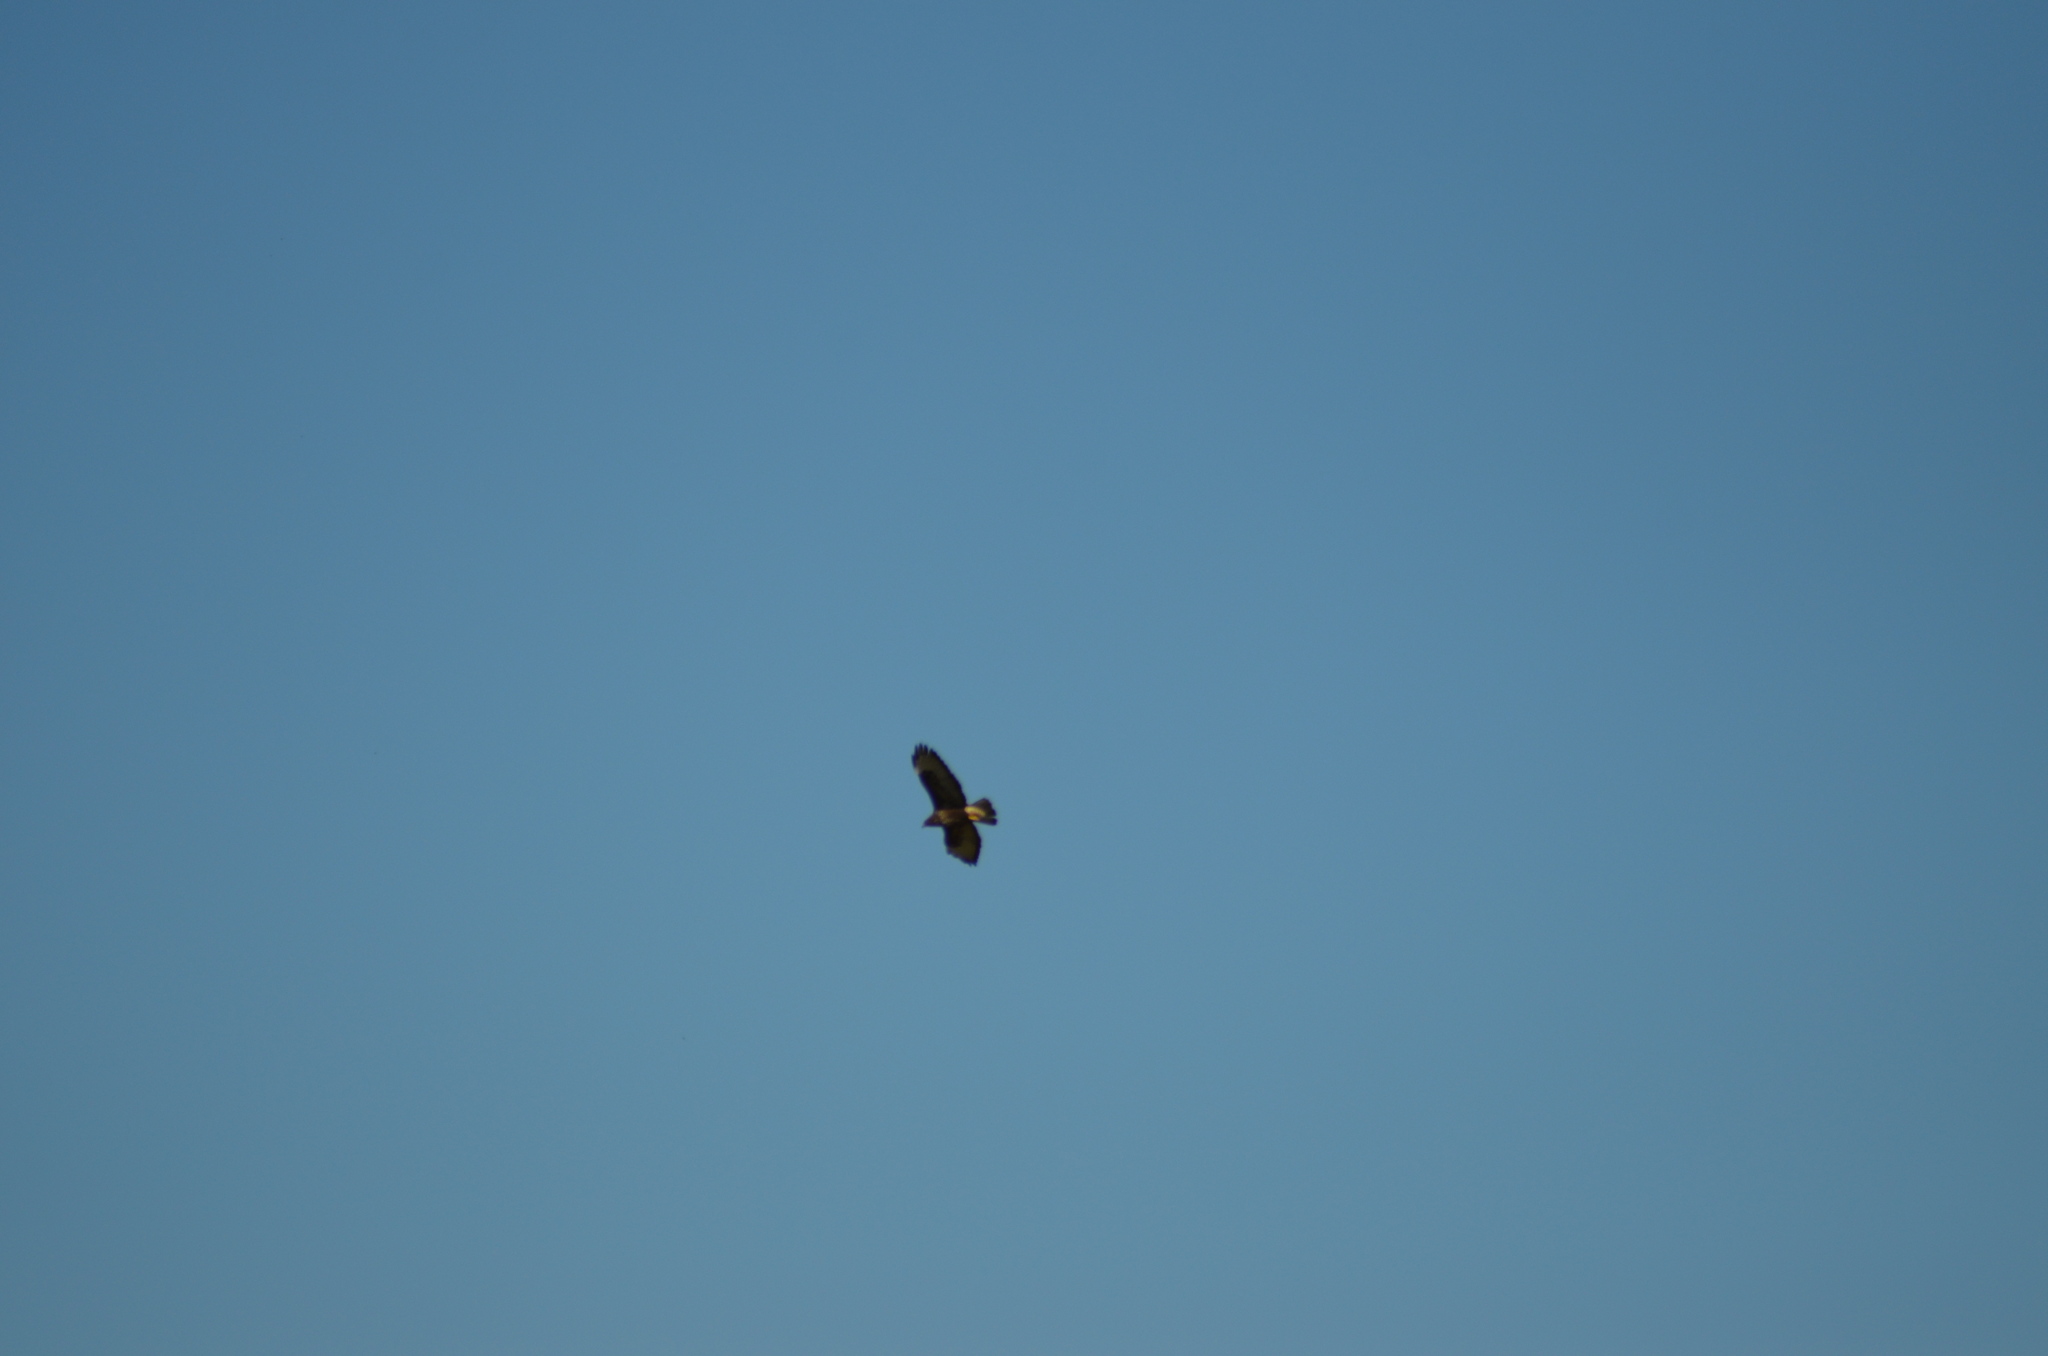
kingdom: Animalia
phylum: Chordata
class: Aves
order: Accipitriformes
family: Accipitridae
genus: Buteo
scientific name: Buteo buteo
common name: Common buzzard
